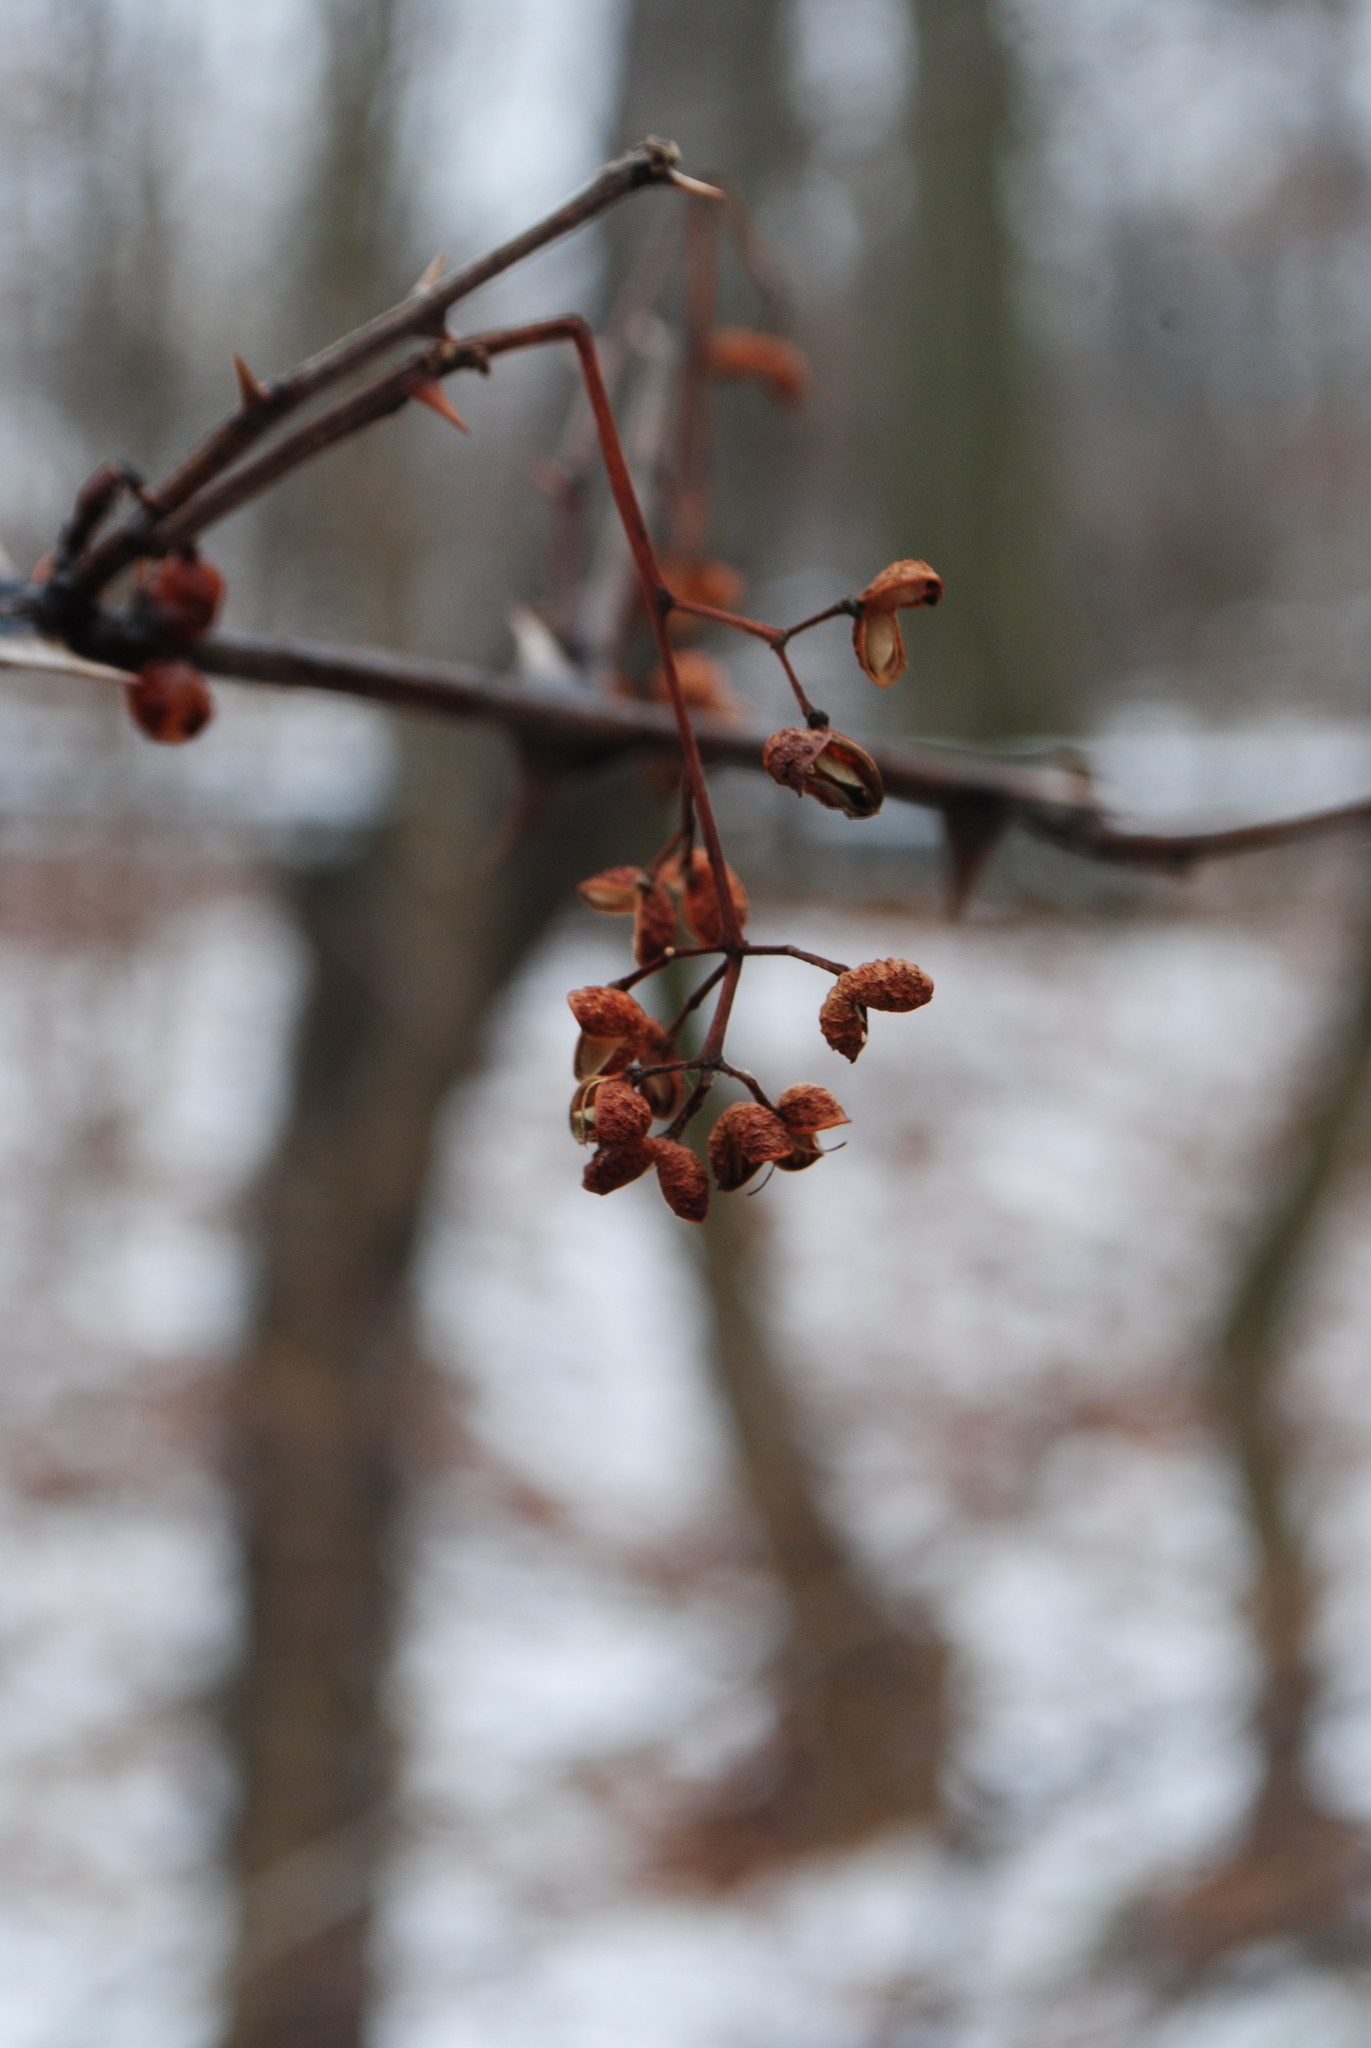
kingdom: Plantae
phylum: Tracheophyta
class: Magnoliopsida
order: Sapindales
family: Rutaceae
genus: Zanthoxylum
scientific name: Zanthoxylum simulans
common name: Chinese-pepper
